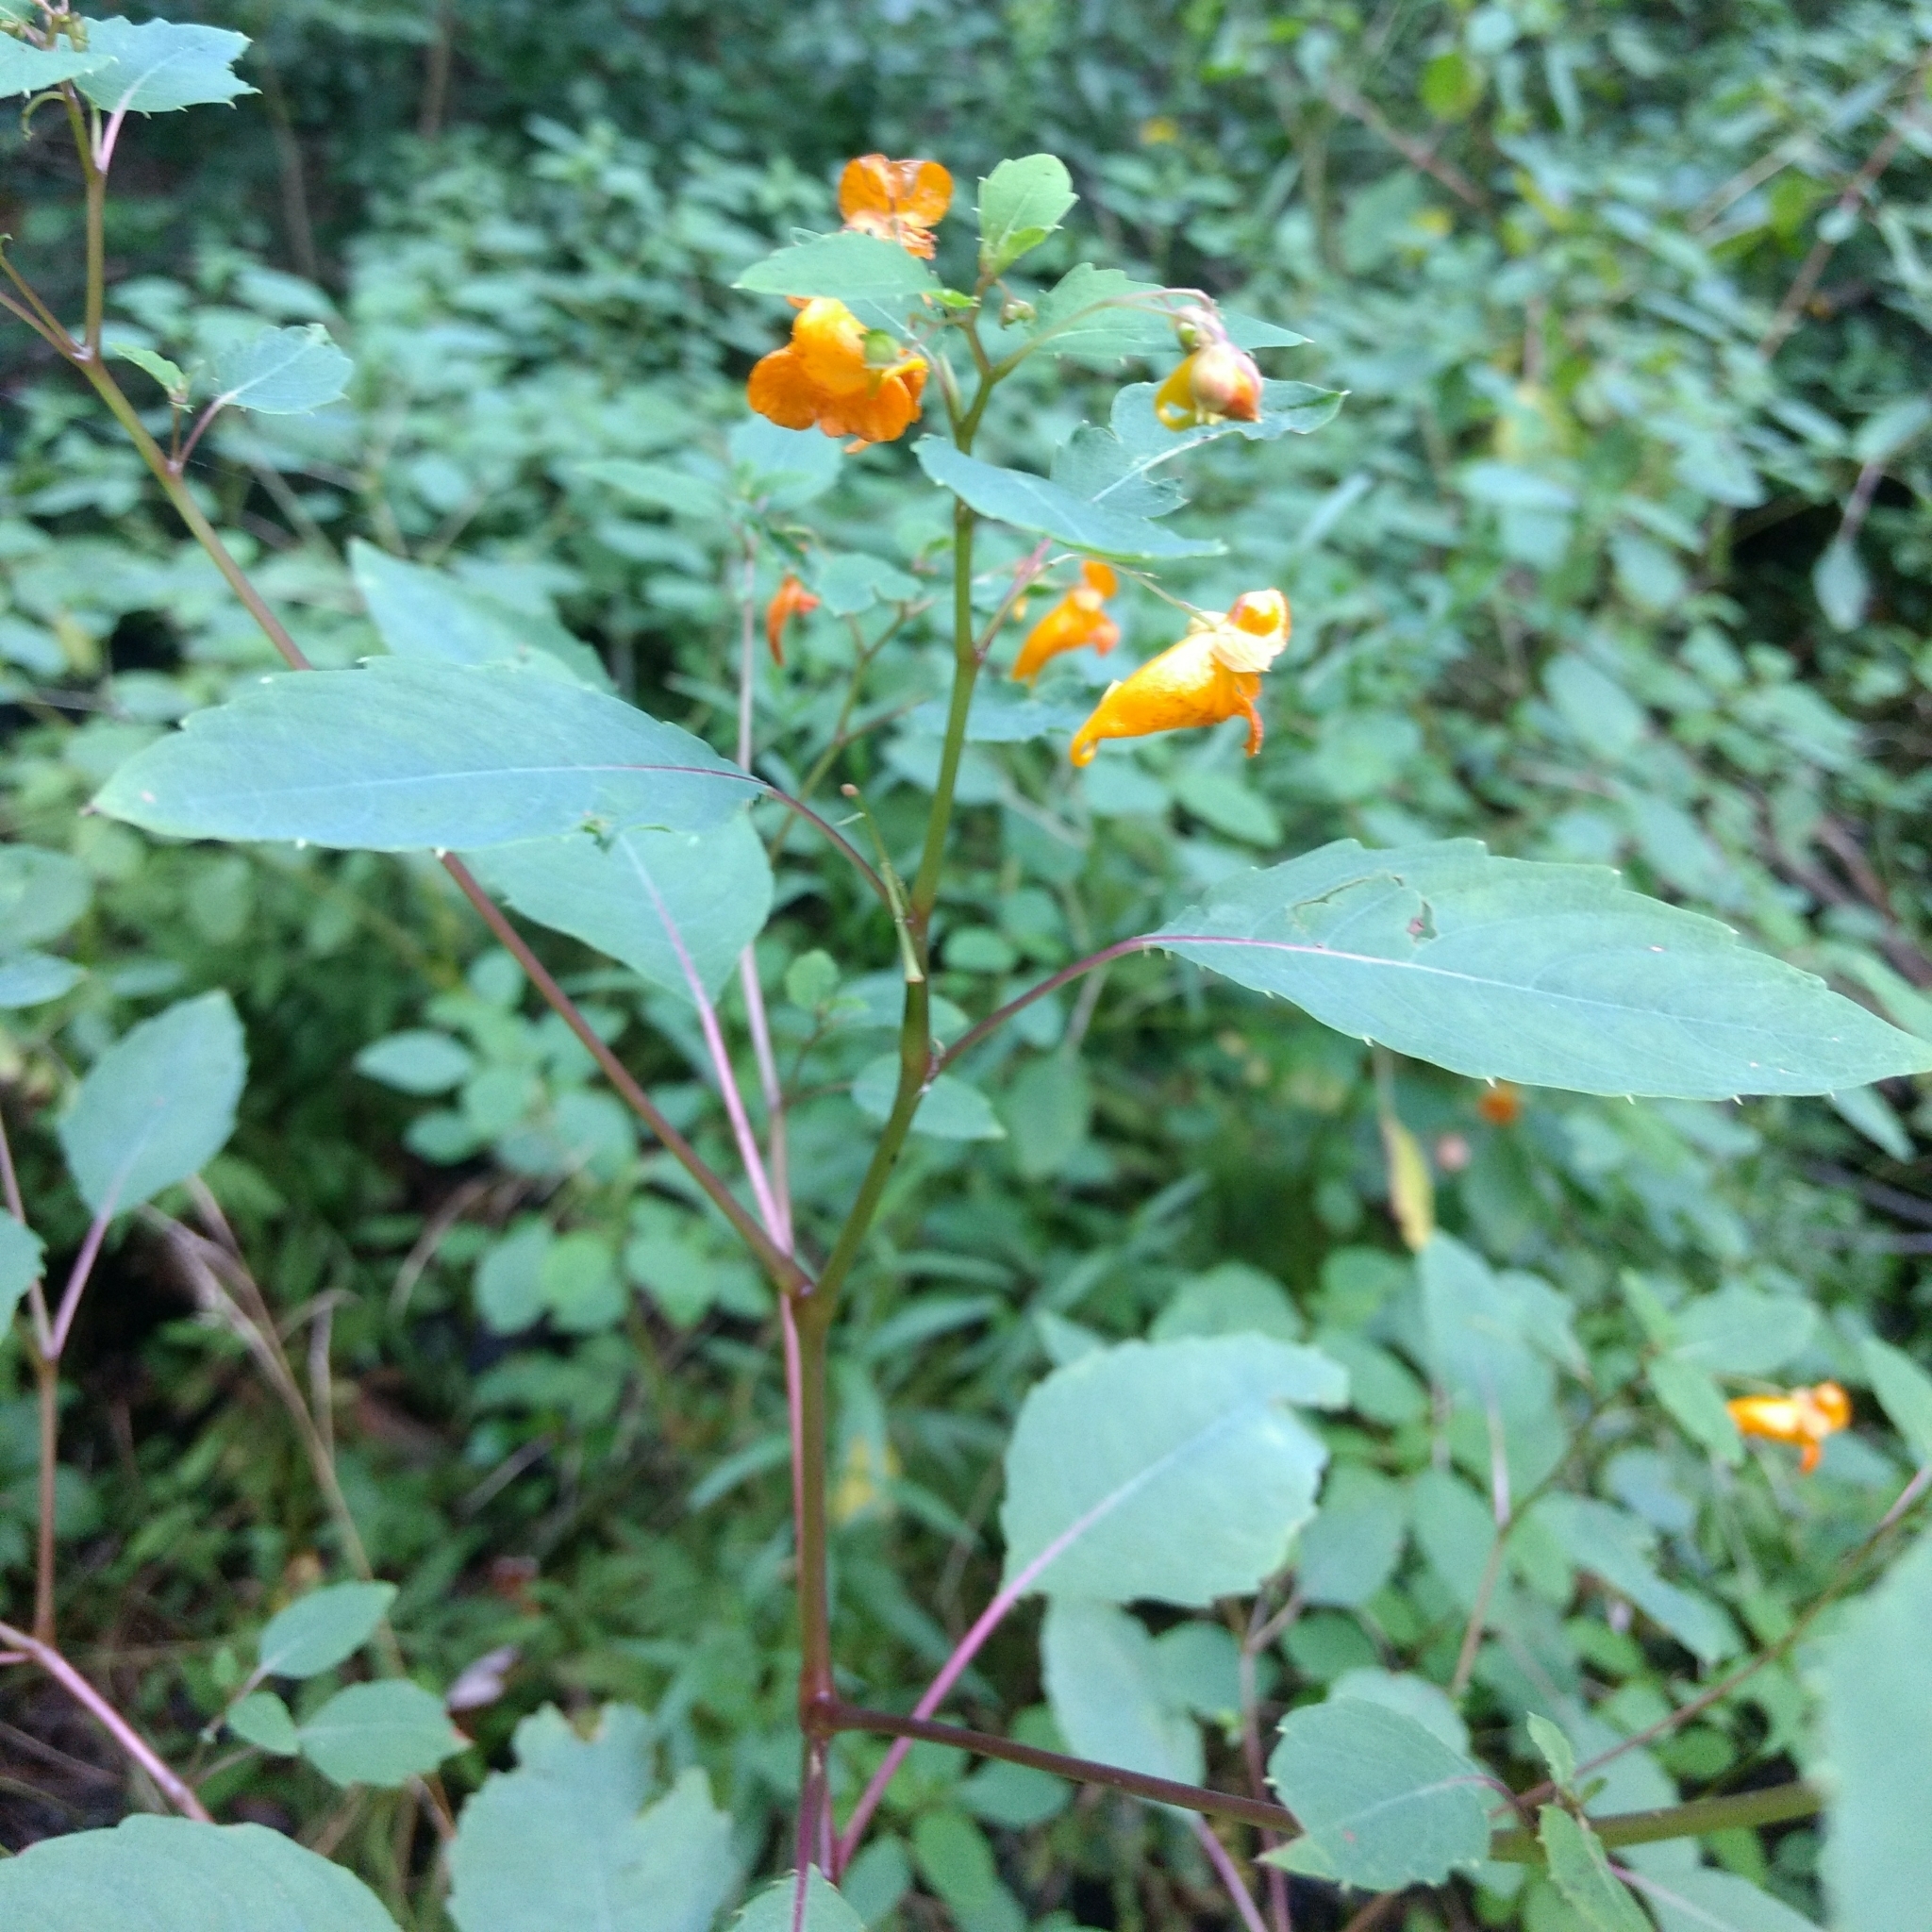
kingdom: Plantae
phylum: Tracheophyta
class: Magnoliopsida
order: Ericales
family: Balsaminaceae
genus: Impatiens
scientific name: Impatiens capensis
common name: Orange balsam
